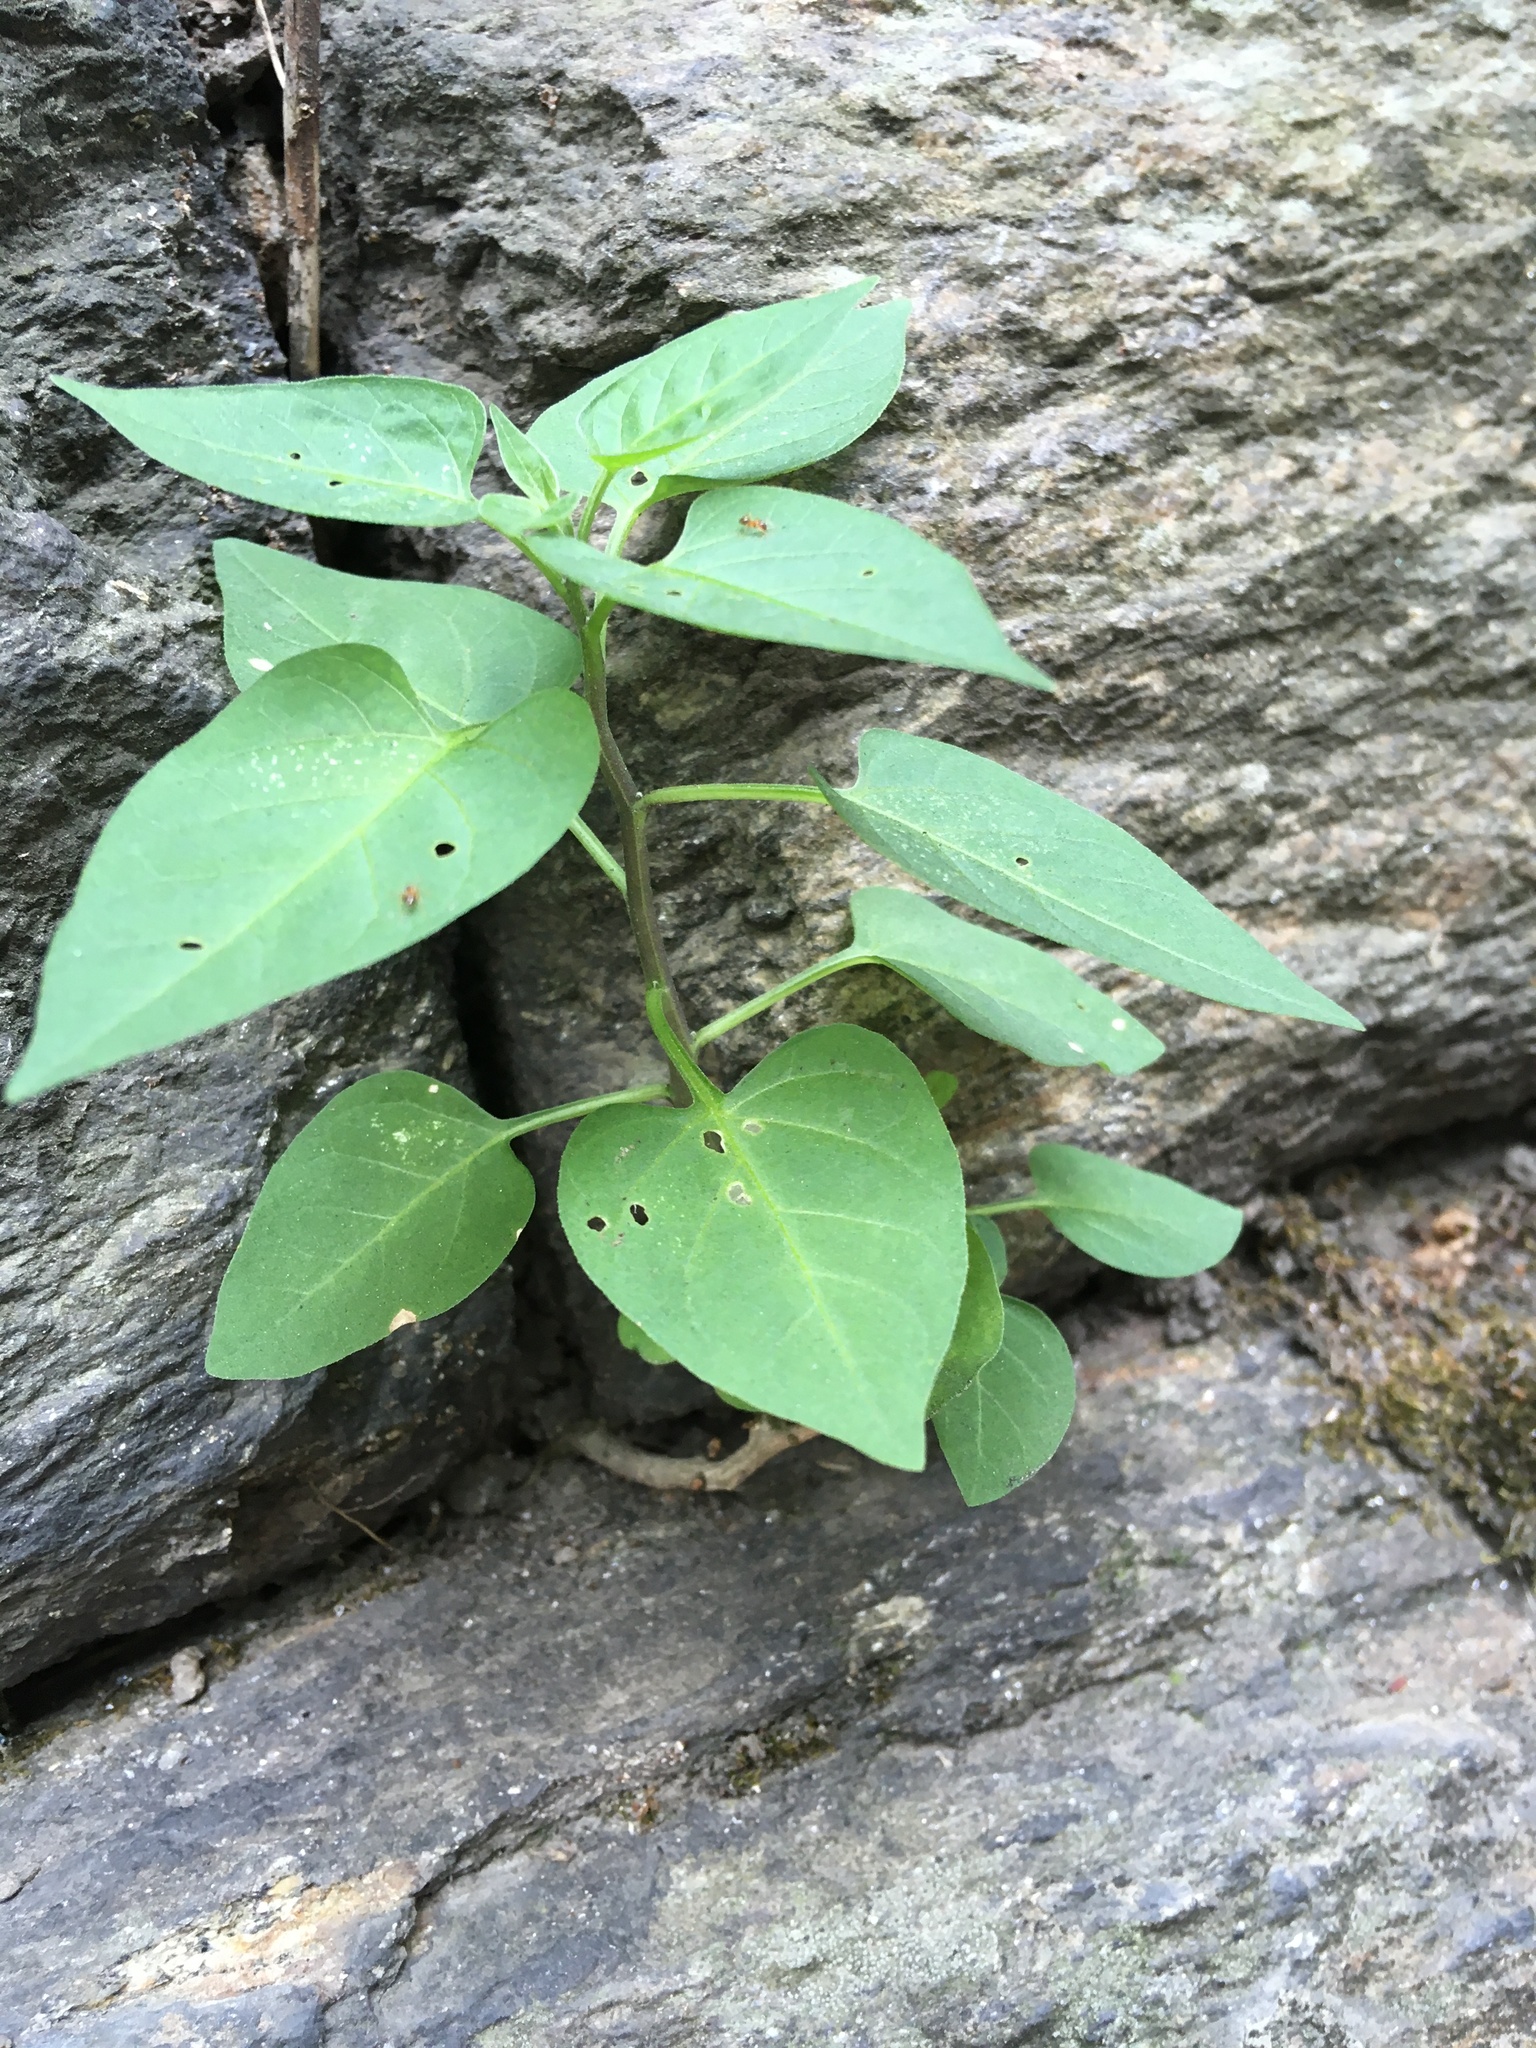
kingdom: Plantae
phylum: Tracheophyta
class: Magnoliopsida
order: Solanales
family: Solanaceae
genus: Solanum
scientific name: Solanum dulcamara
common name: Climbing nightshade
